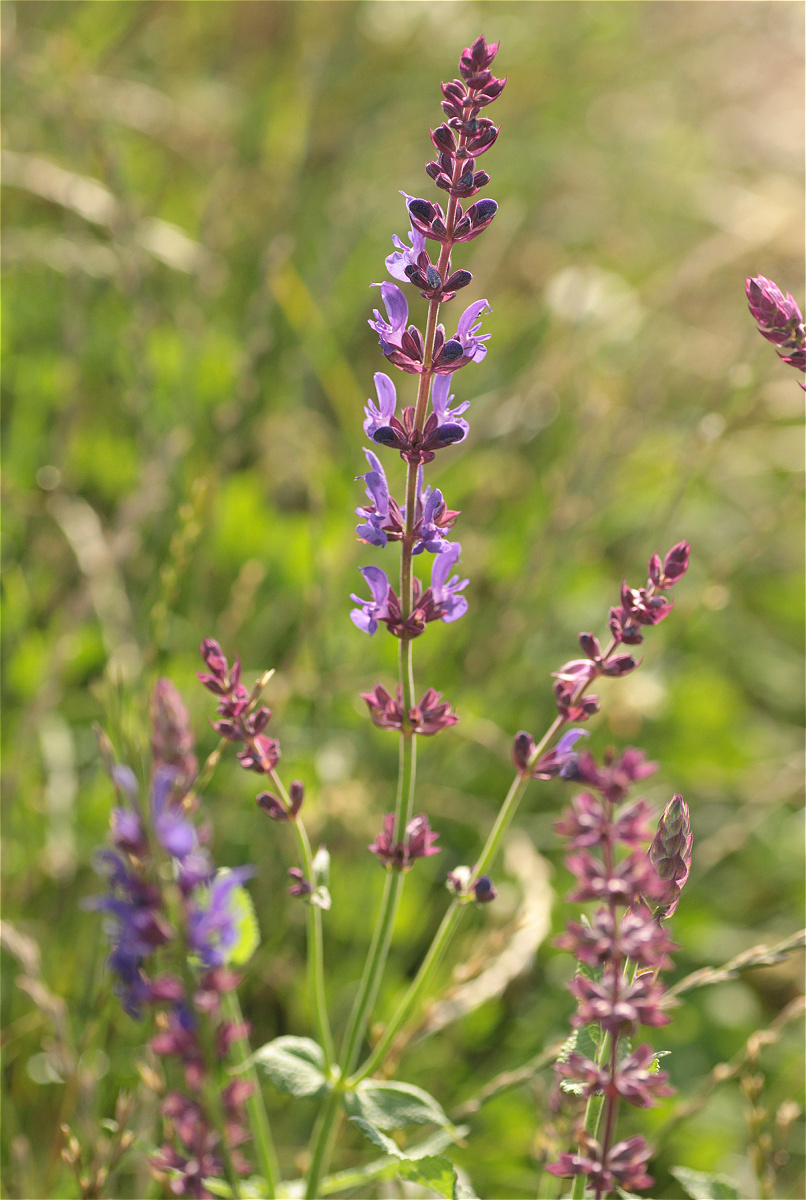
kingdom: Plantae
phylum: Tracheophyta
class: Magnoliopsida
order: Lamiales
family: Lamiaceae
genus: Salvia
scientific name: Salvia nemorosa
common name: Balkan clary
